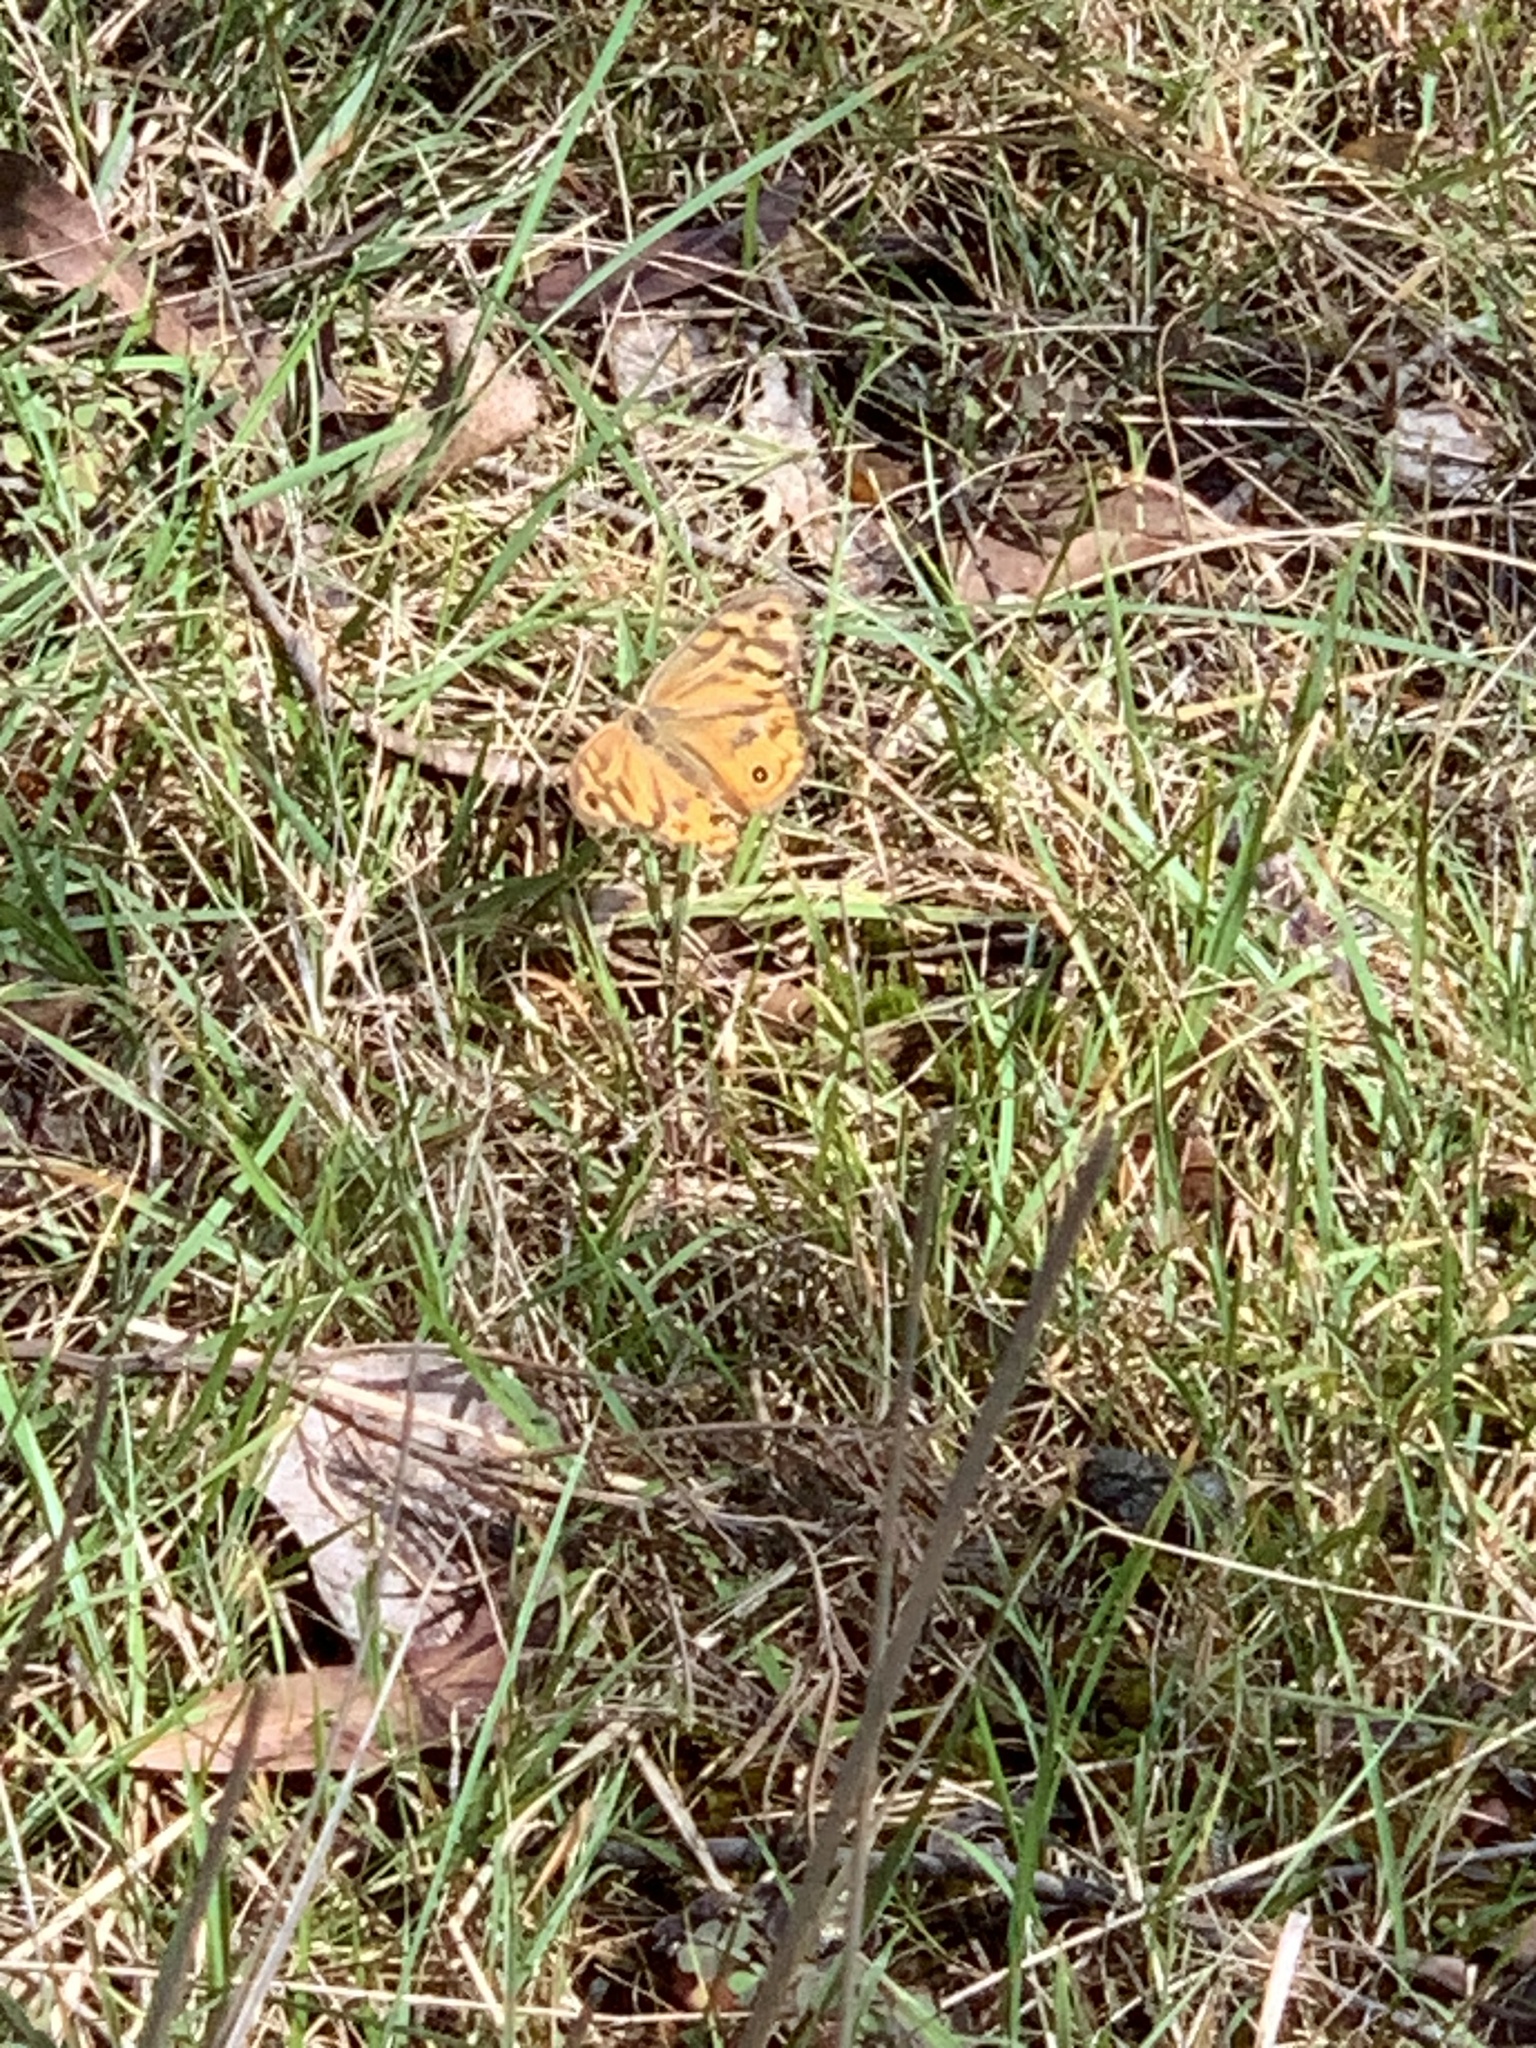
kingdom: Animalia
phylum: Arthropoda
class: Insecta
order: Lepidoptera
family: Nymphalidae
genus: Heteronympha
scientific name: Heteronympha merope
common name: Common brown
